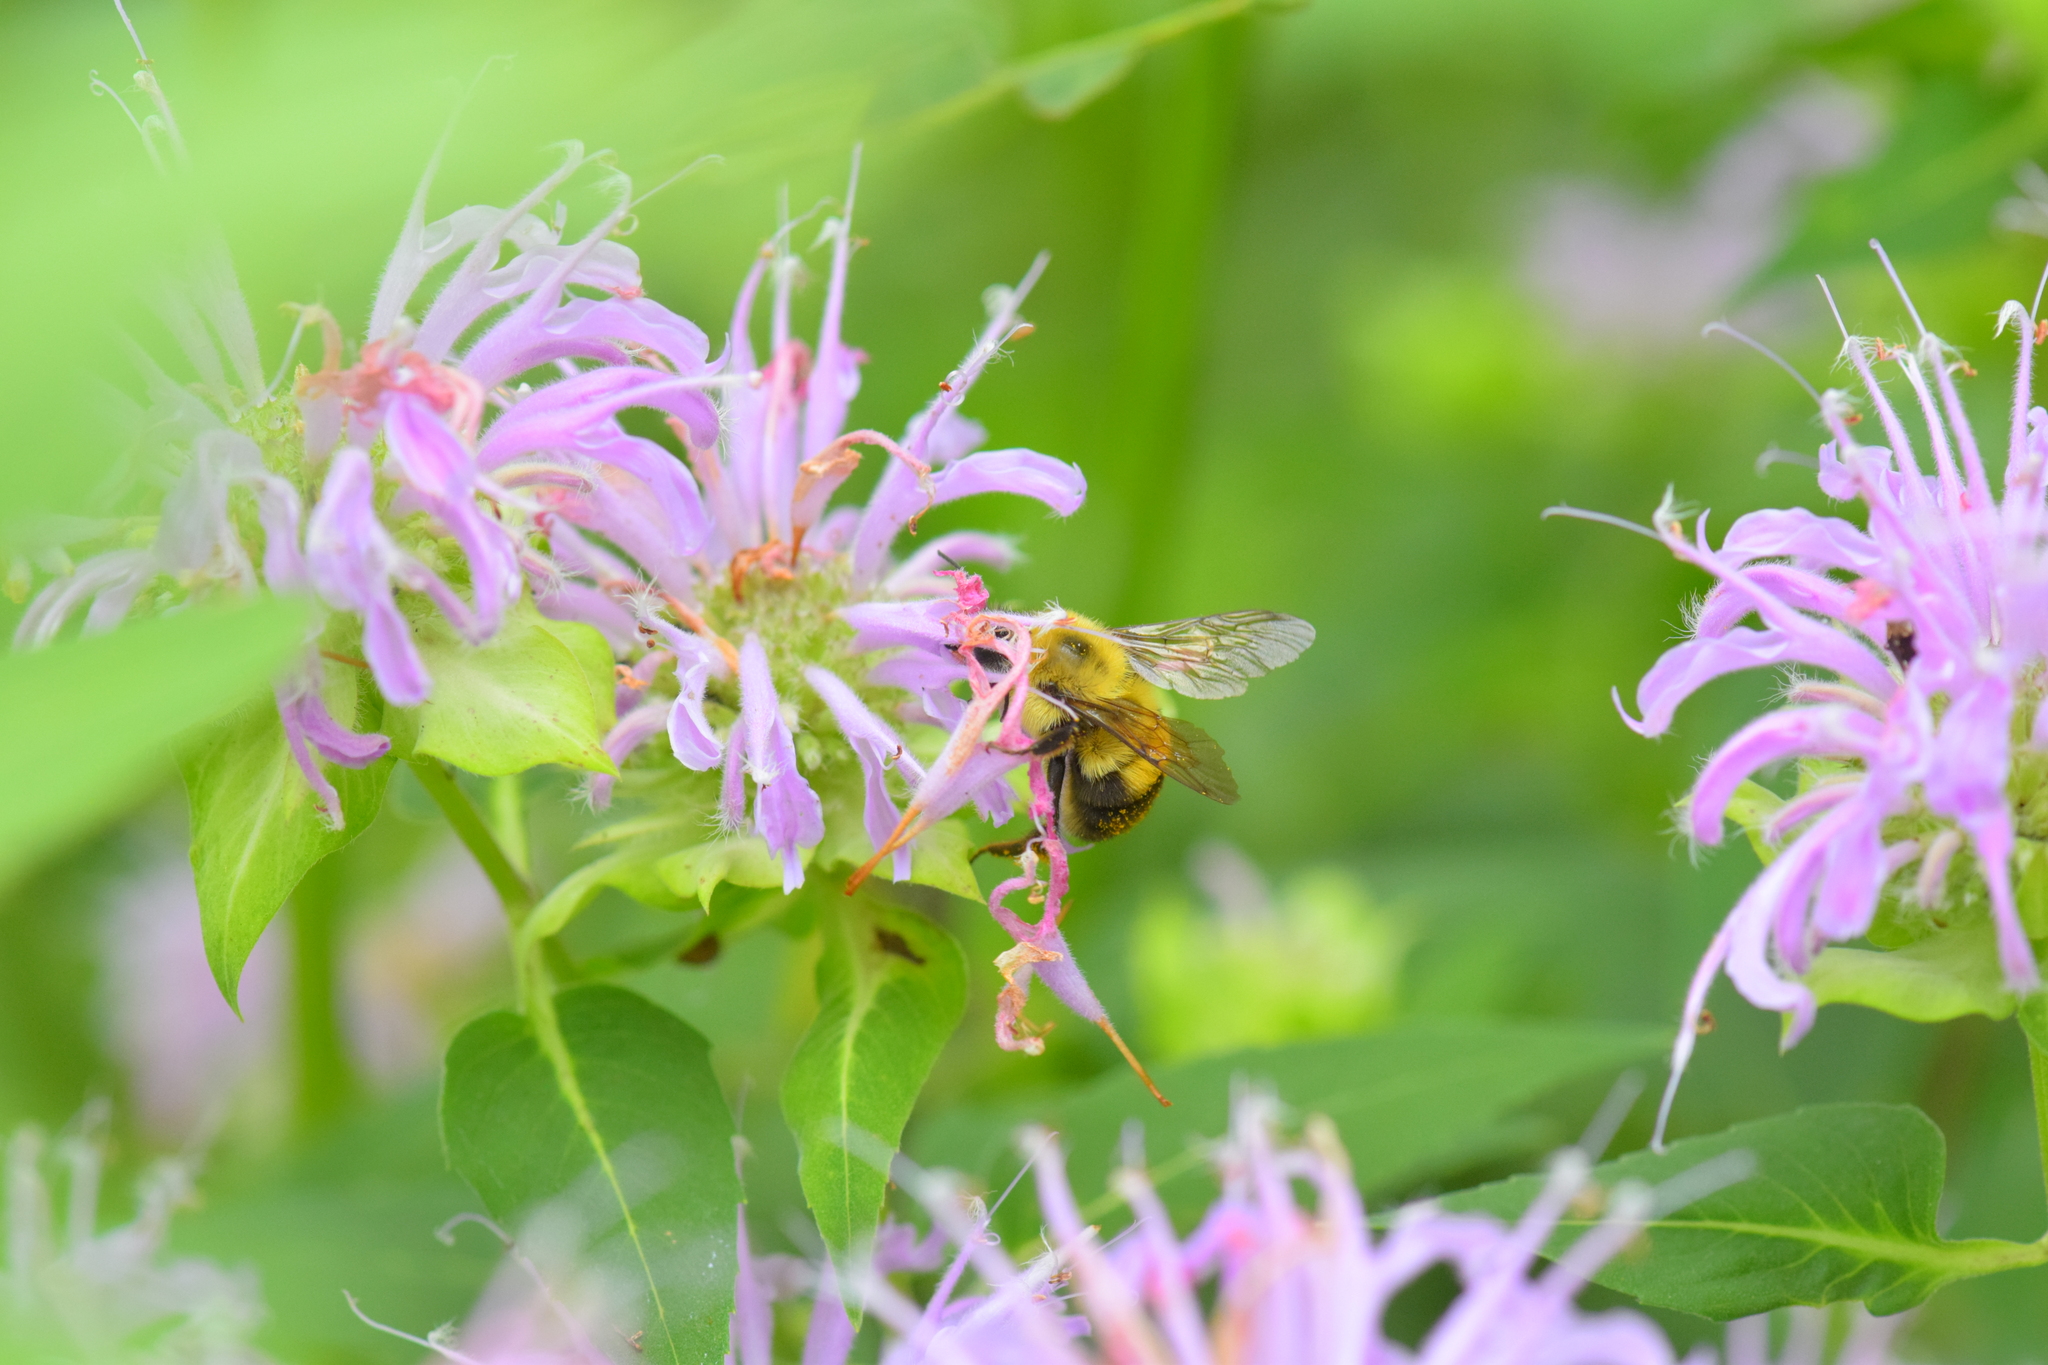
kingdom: Animalia
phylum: Arthropoda
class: Insecta
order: Hymenoptera
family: Apidae
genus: Bombus
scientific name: Bombus bimaculatus
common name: Two-spotted bumble bee
